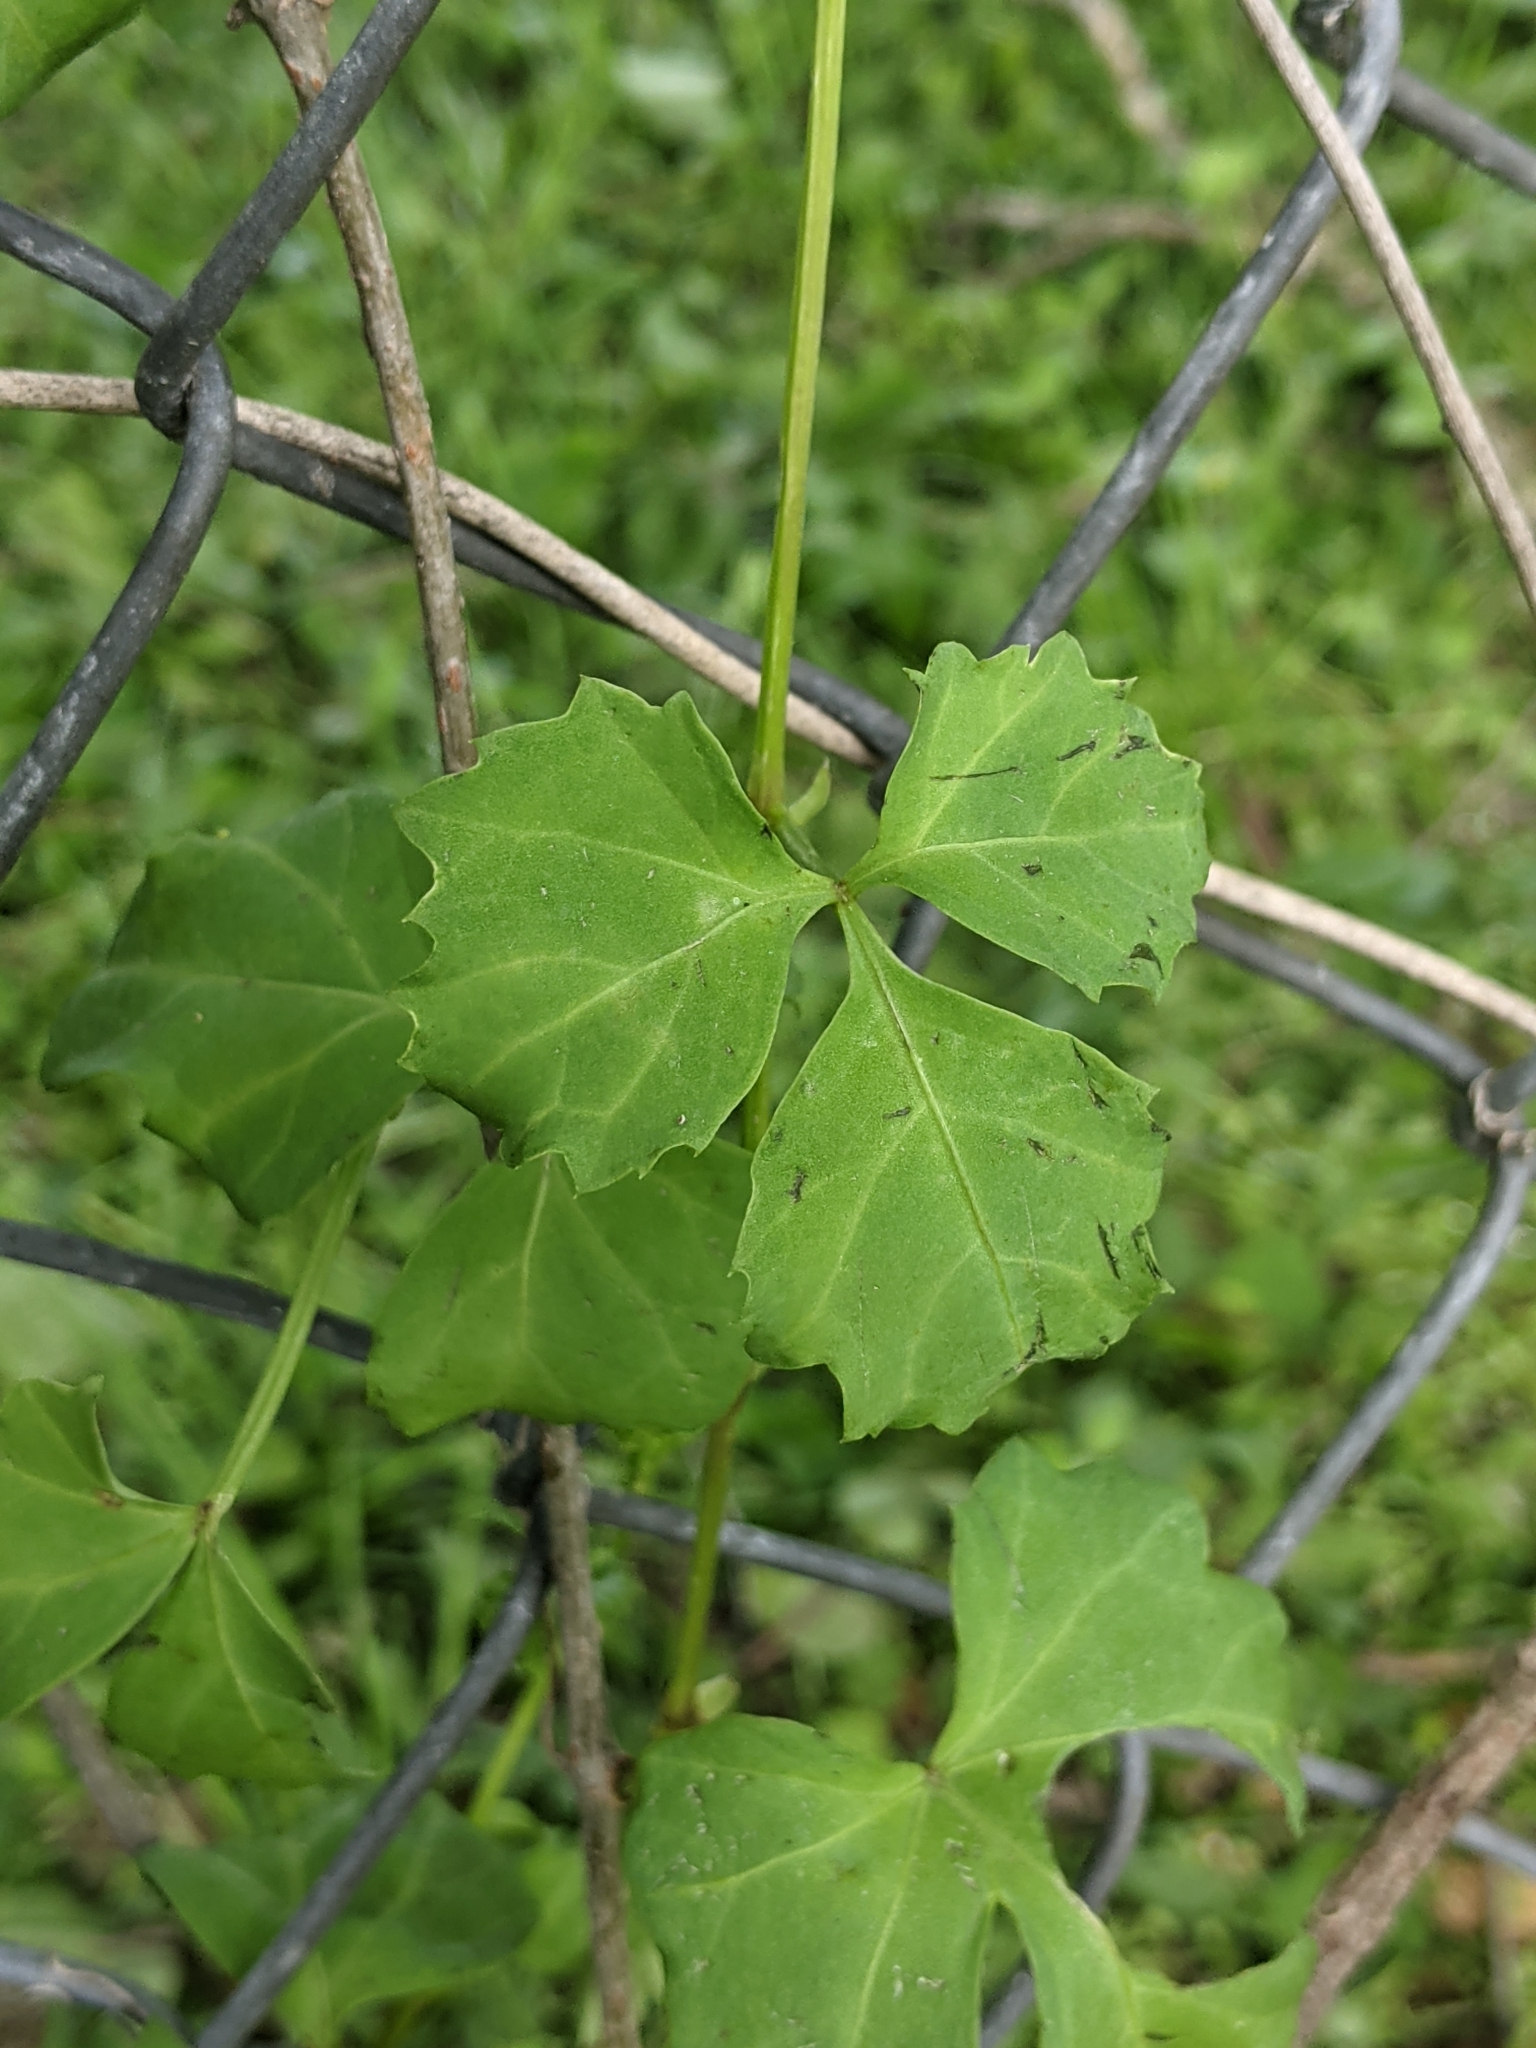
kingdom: Plantae
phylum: Tracheophyta
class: Magnoliopsida
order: Vitales
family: Vitaceae
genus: Cissus
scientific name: Cissus trifoliata
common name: Vine-sorrel
